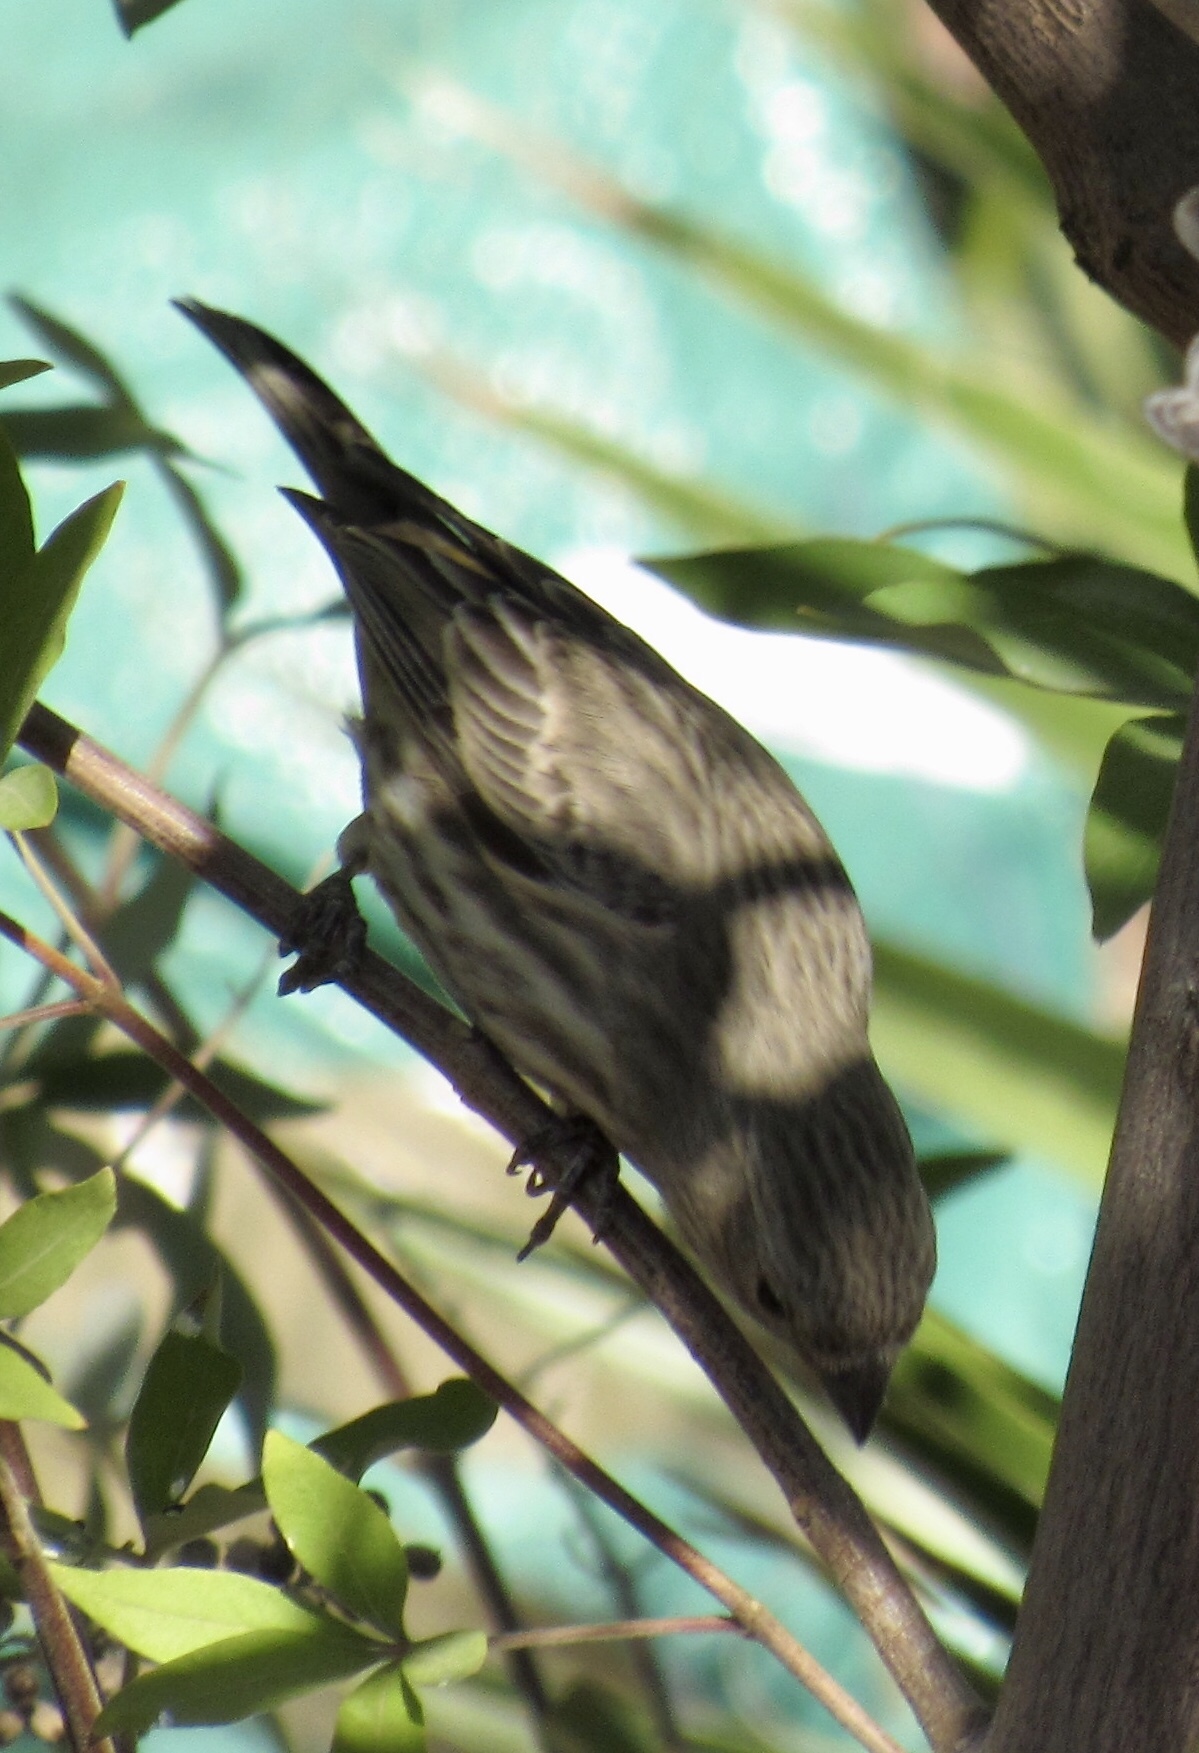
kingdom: Animalia
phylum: Chordata
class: Aves
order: Passeriformes
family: Fringillidae
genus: Haemorhous
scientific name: Haemorhous mexicanus
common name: House finch
